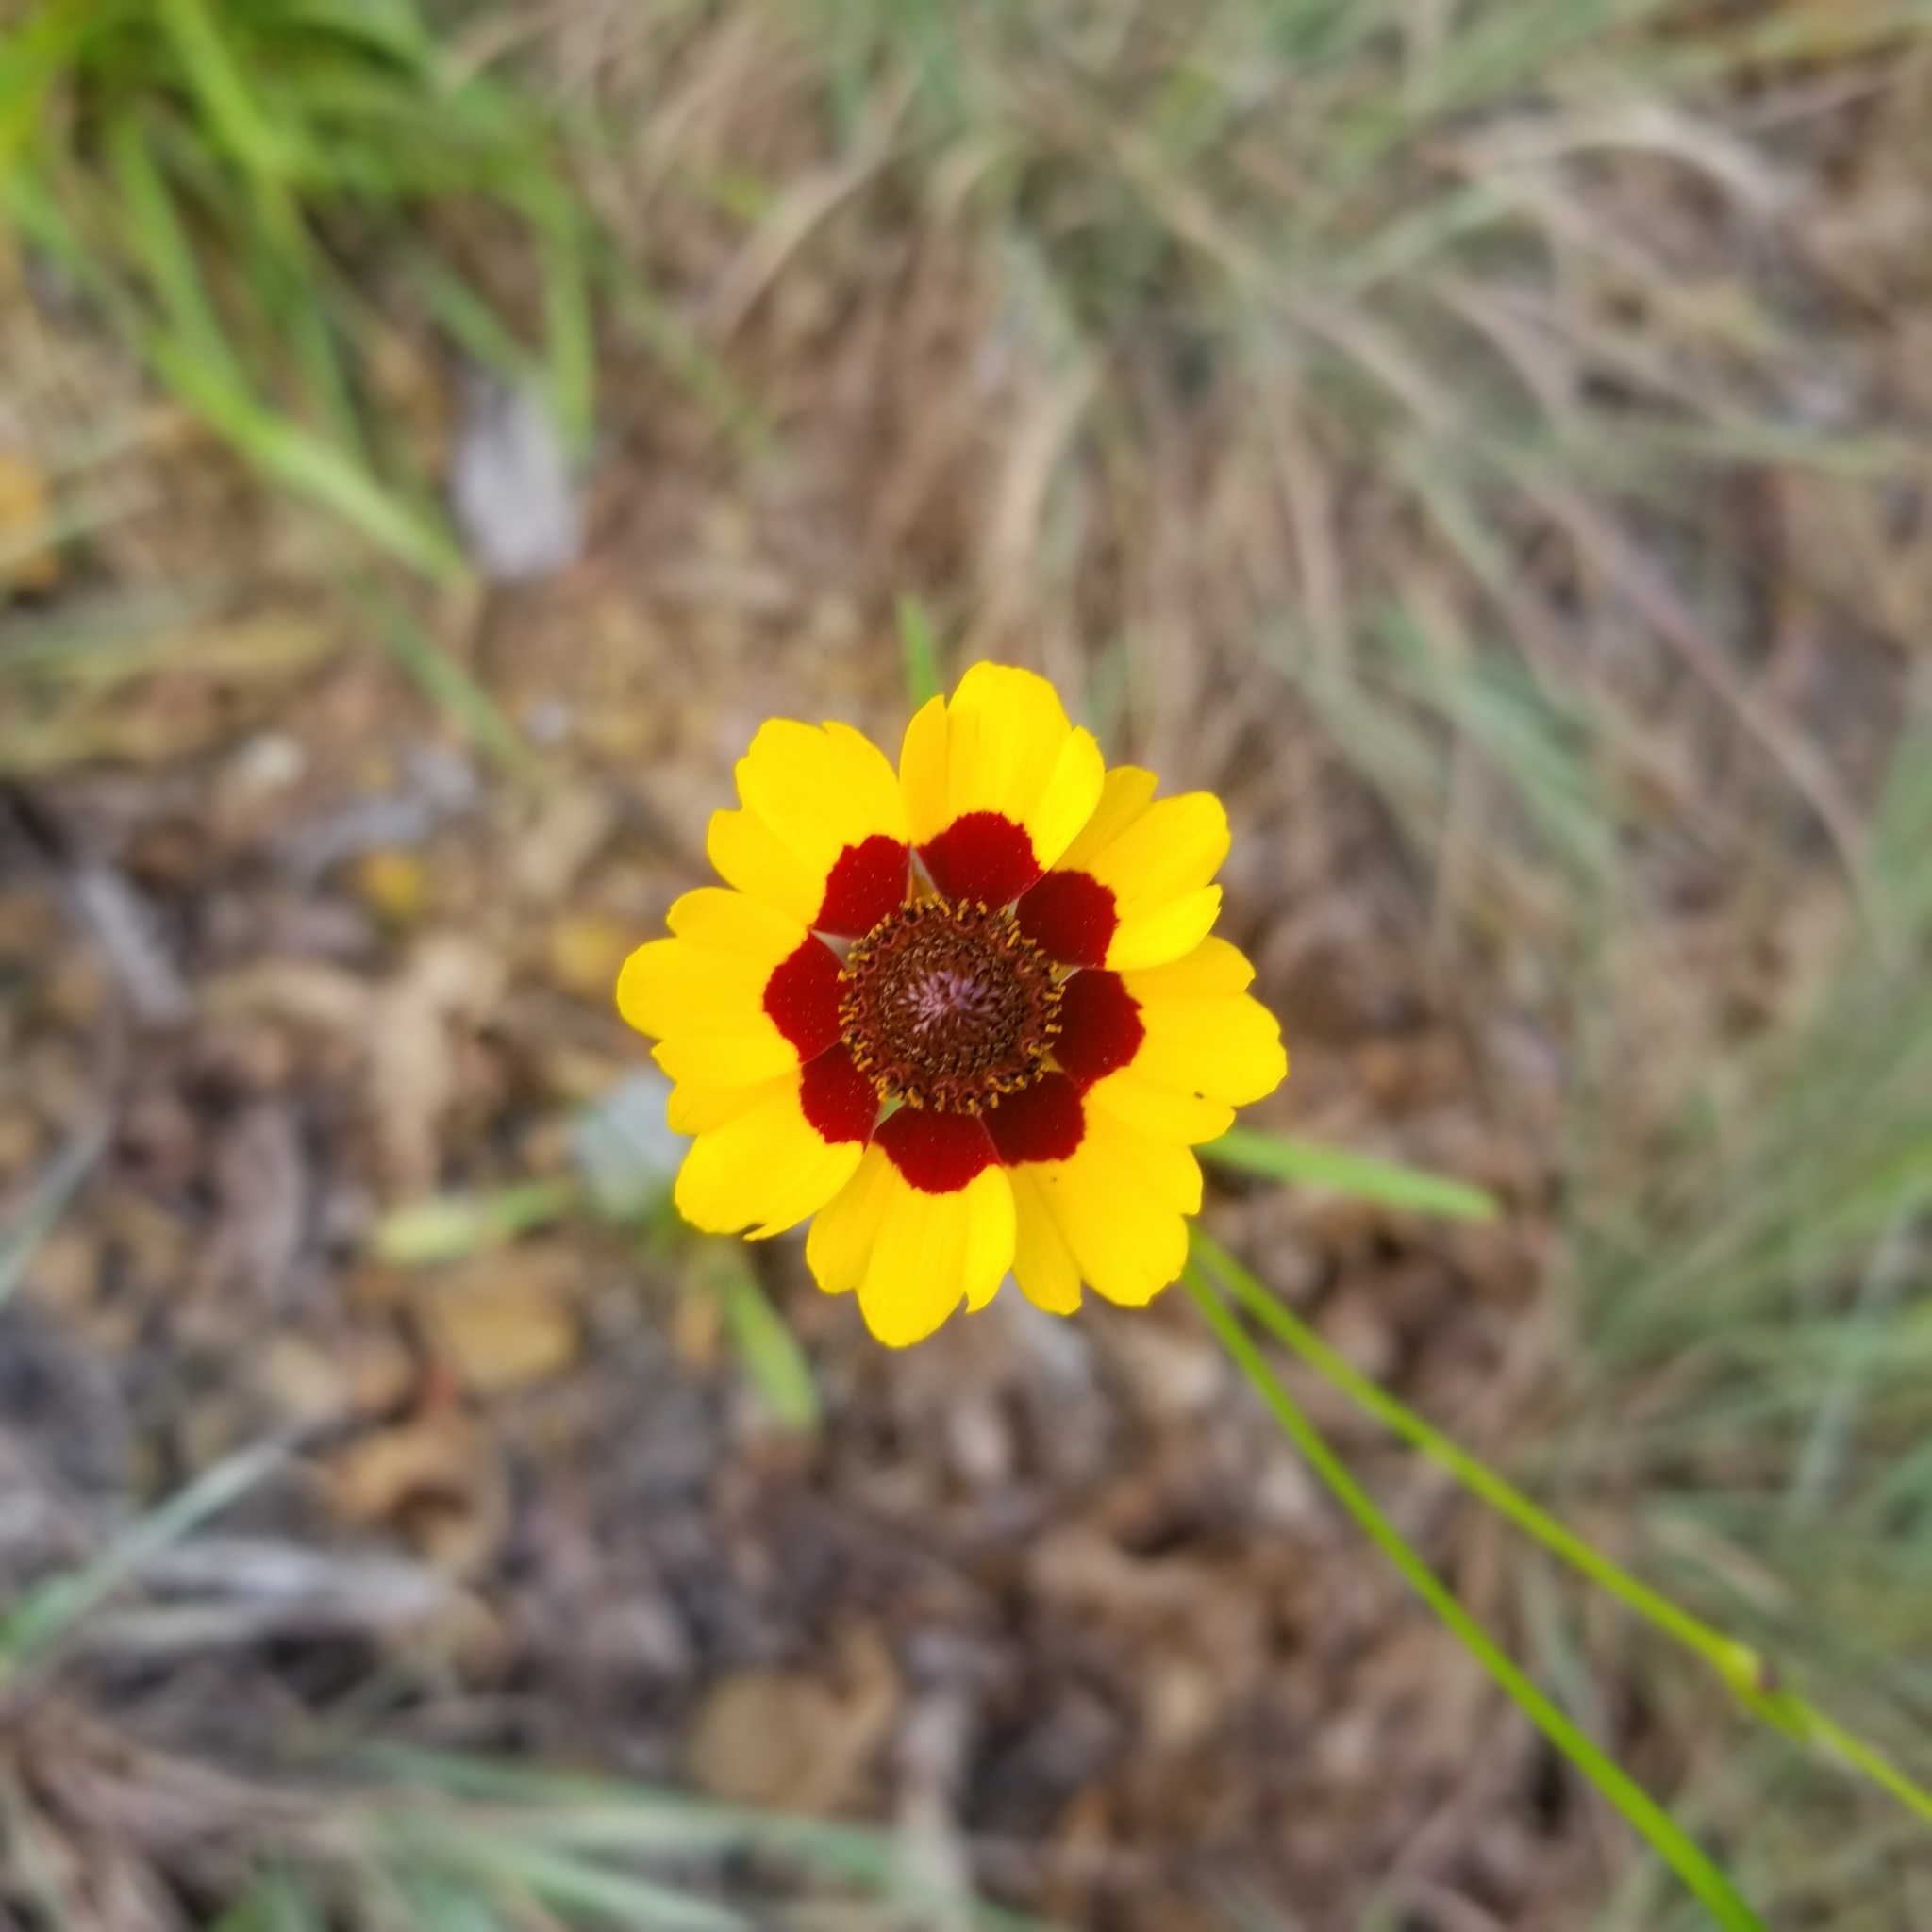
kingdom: Plantae
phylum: Tracheophyta
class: Magnoliopsida
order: Asterales
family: Asteraceae
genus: Coreopsis
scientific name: Coreopsis tinctoria
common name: Garden tickseed
